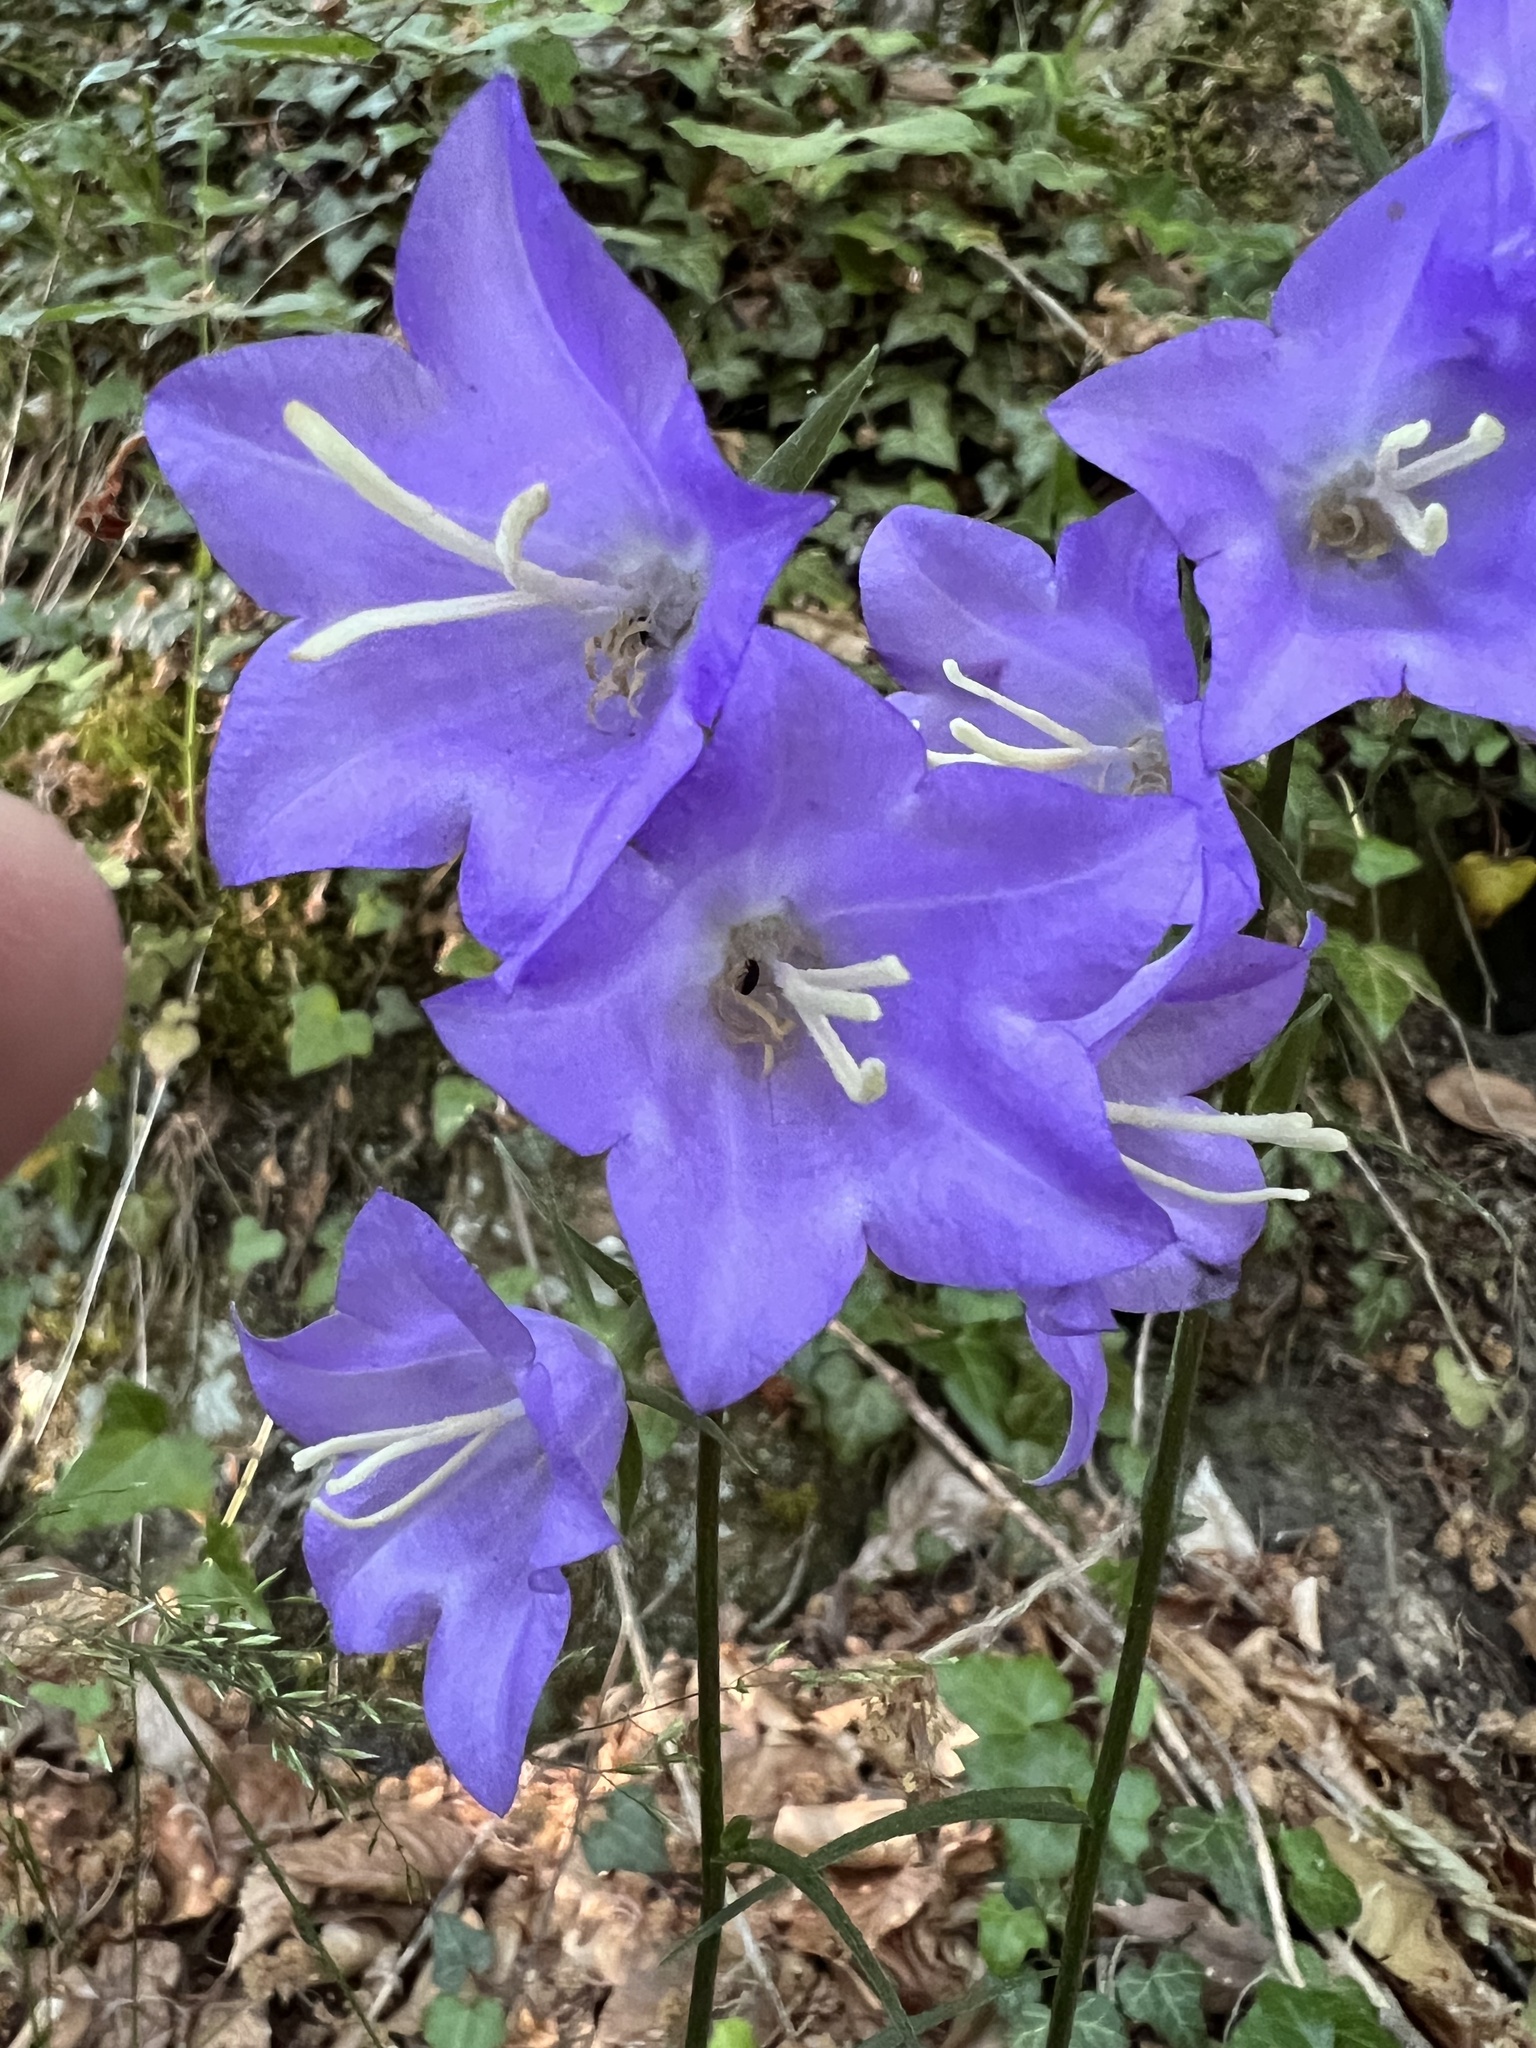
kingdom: Plantae
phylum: Tracheophyta
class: Magnoliopsida
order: Asterales
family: Campanulaceae
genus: Campanula
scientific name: Campanula persicifolia
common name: Peach-leaved bellflower
